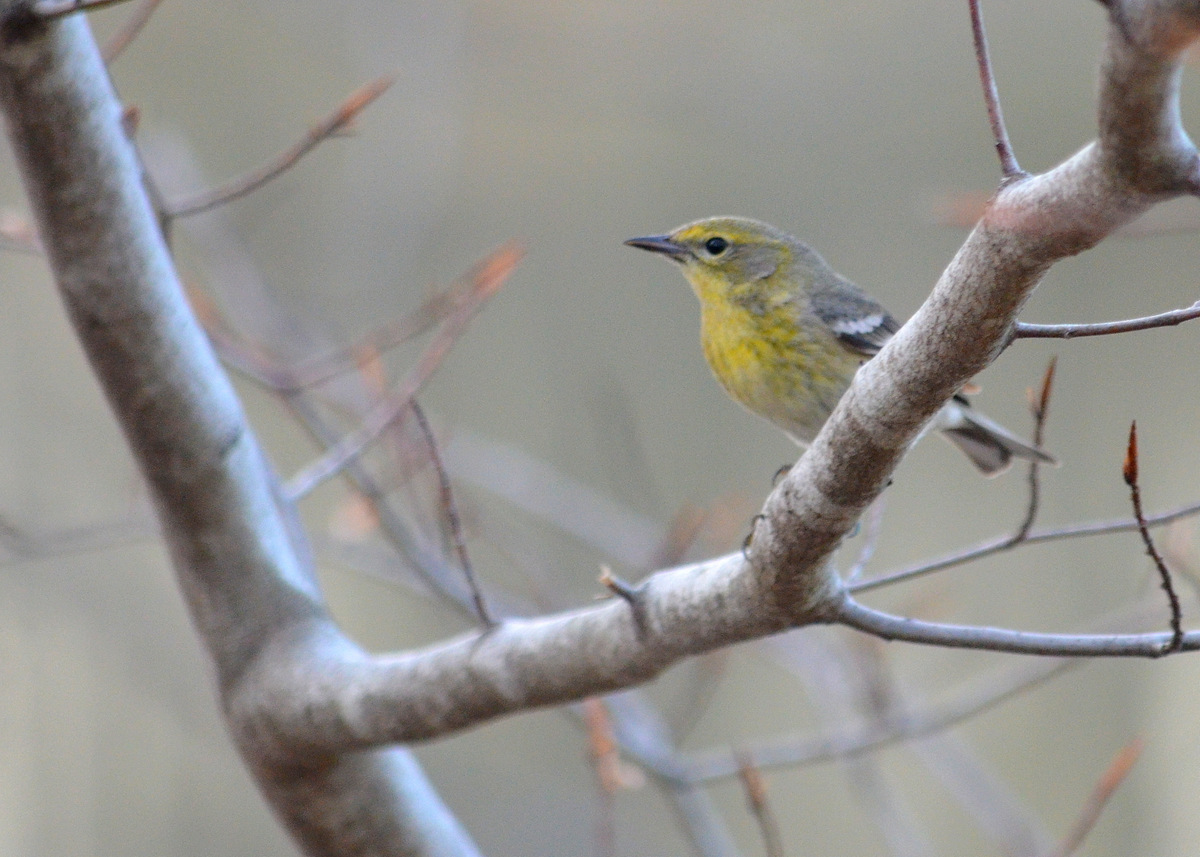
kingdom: Animalia
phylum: Chordata
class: Aves
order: Passeriformes
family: Parulidae
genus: Setophaga
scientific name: Setophaga tigrina
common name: Cape may warbler
